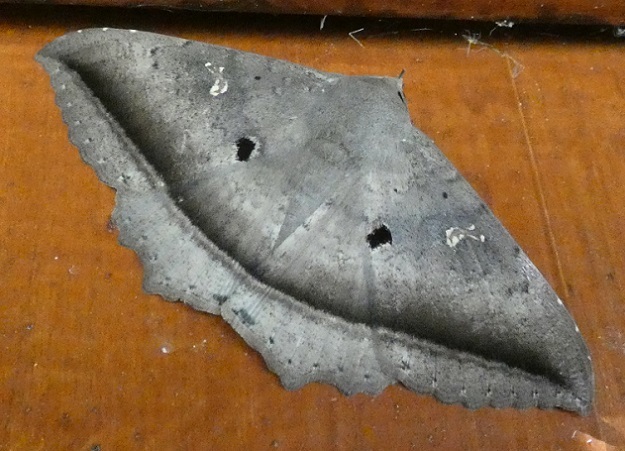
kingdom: Animalia
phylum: Arthropoda
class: Insecta
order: Lepidoptera
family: Erebidae
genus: Hulodes
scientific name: Hulodes caranea
